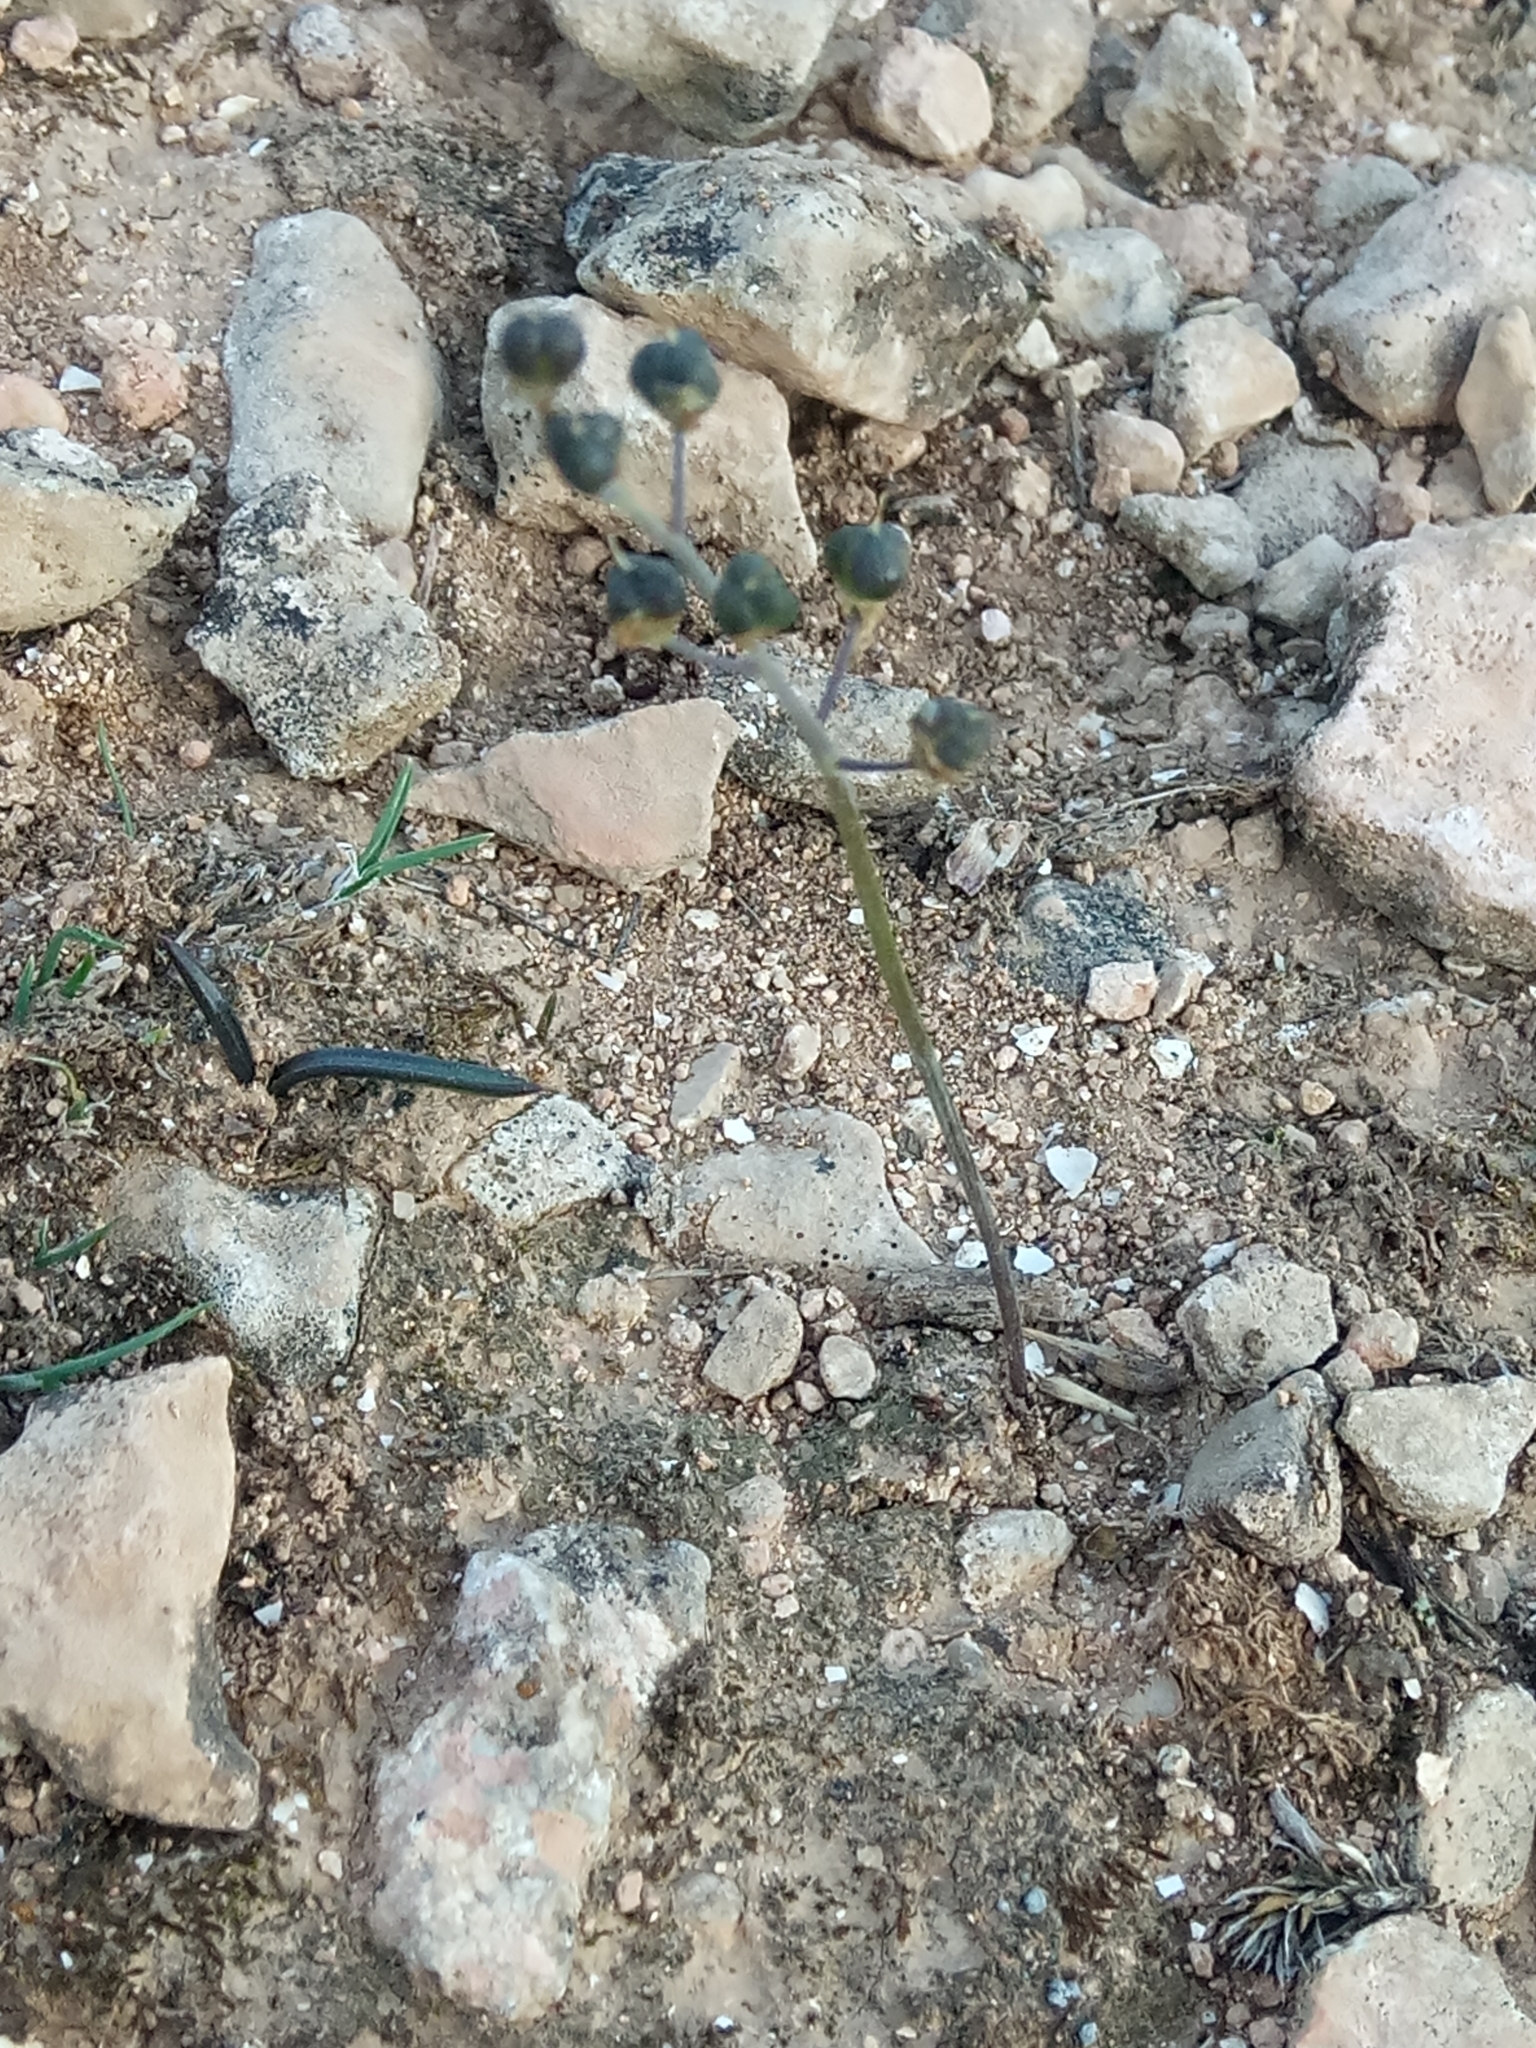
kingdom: Plantae
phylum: Tracheophyta
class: Liliopsida
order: Asparagales
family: Asparagaceae
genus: Prospero
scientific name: Prospero obtusifolium
